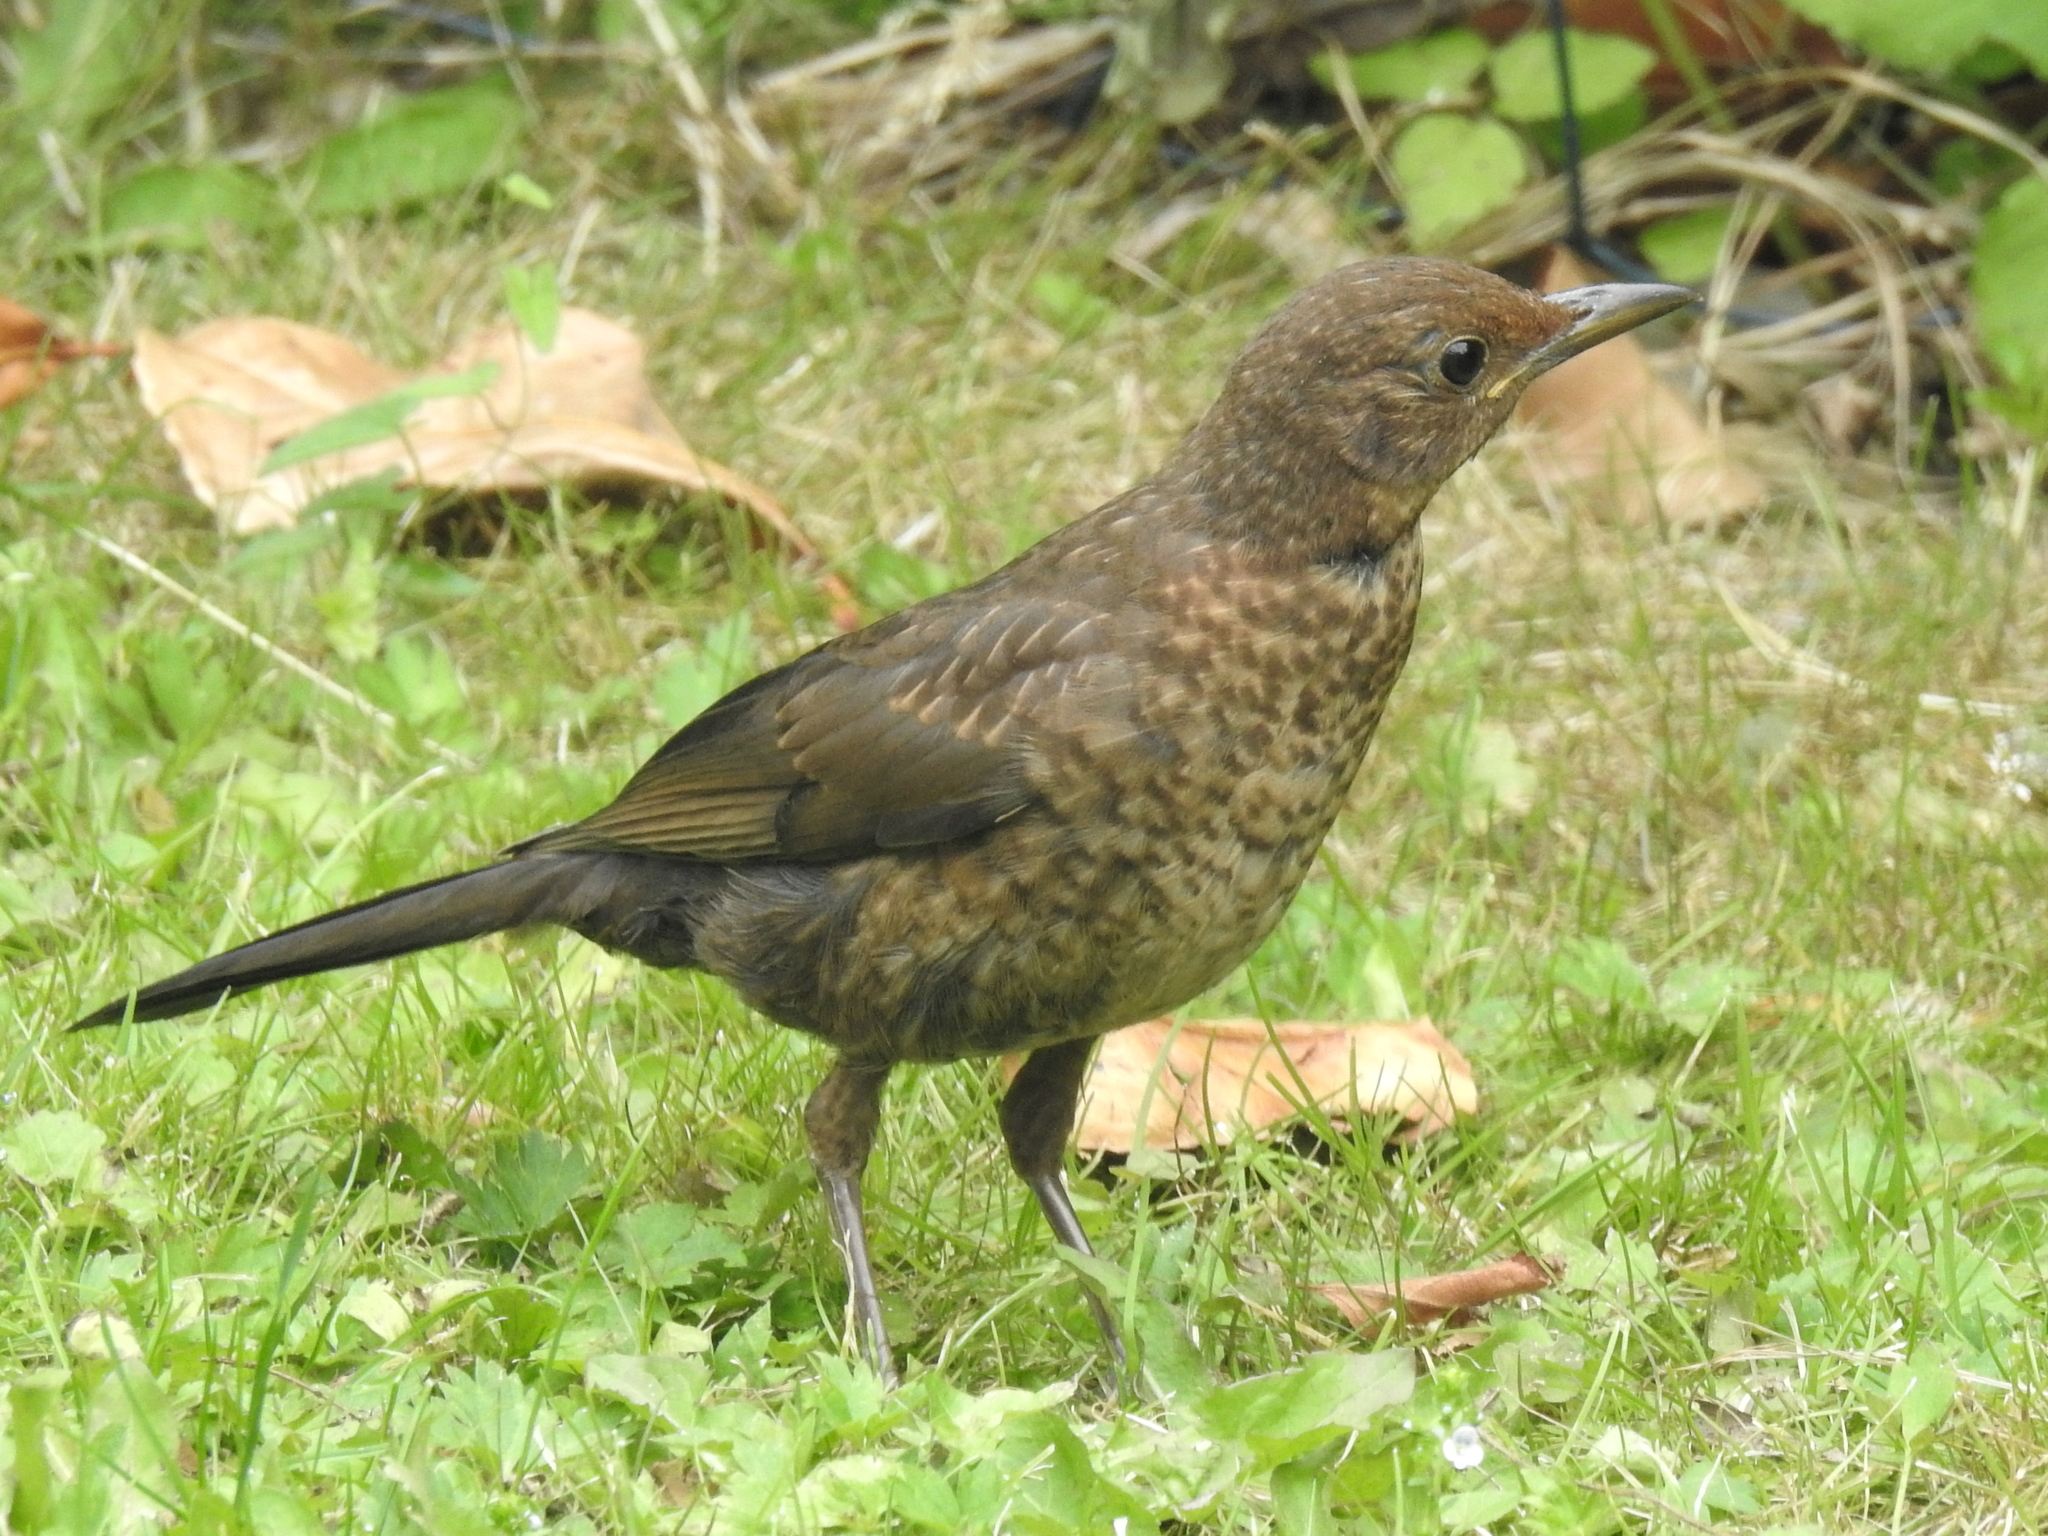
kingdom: Animalia
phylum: Chordata
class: Aves
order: Passeriformes
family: Turdidae
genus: Turdus
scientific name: Turdus merula
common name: Common blackbird
